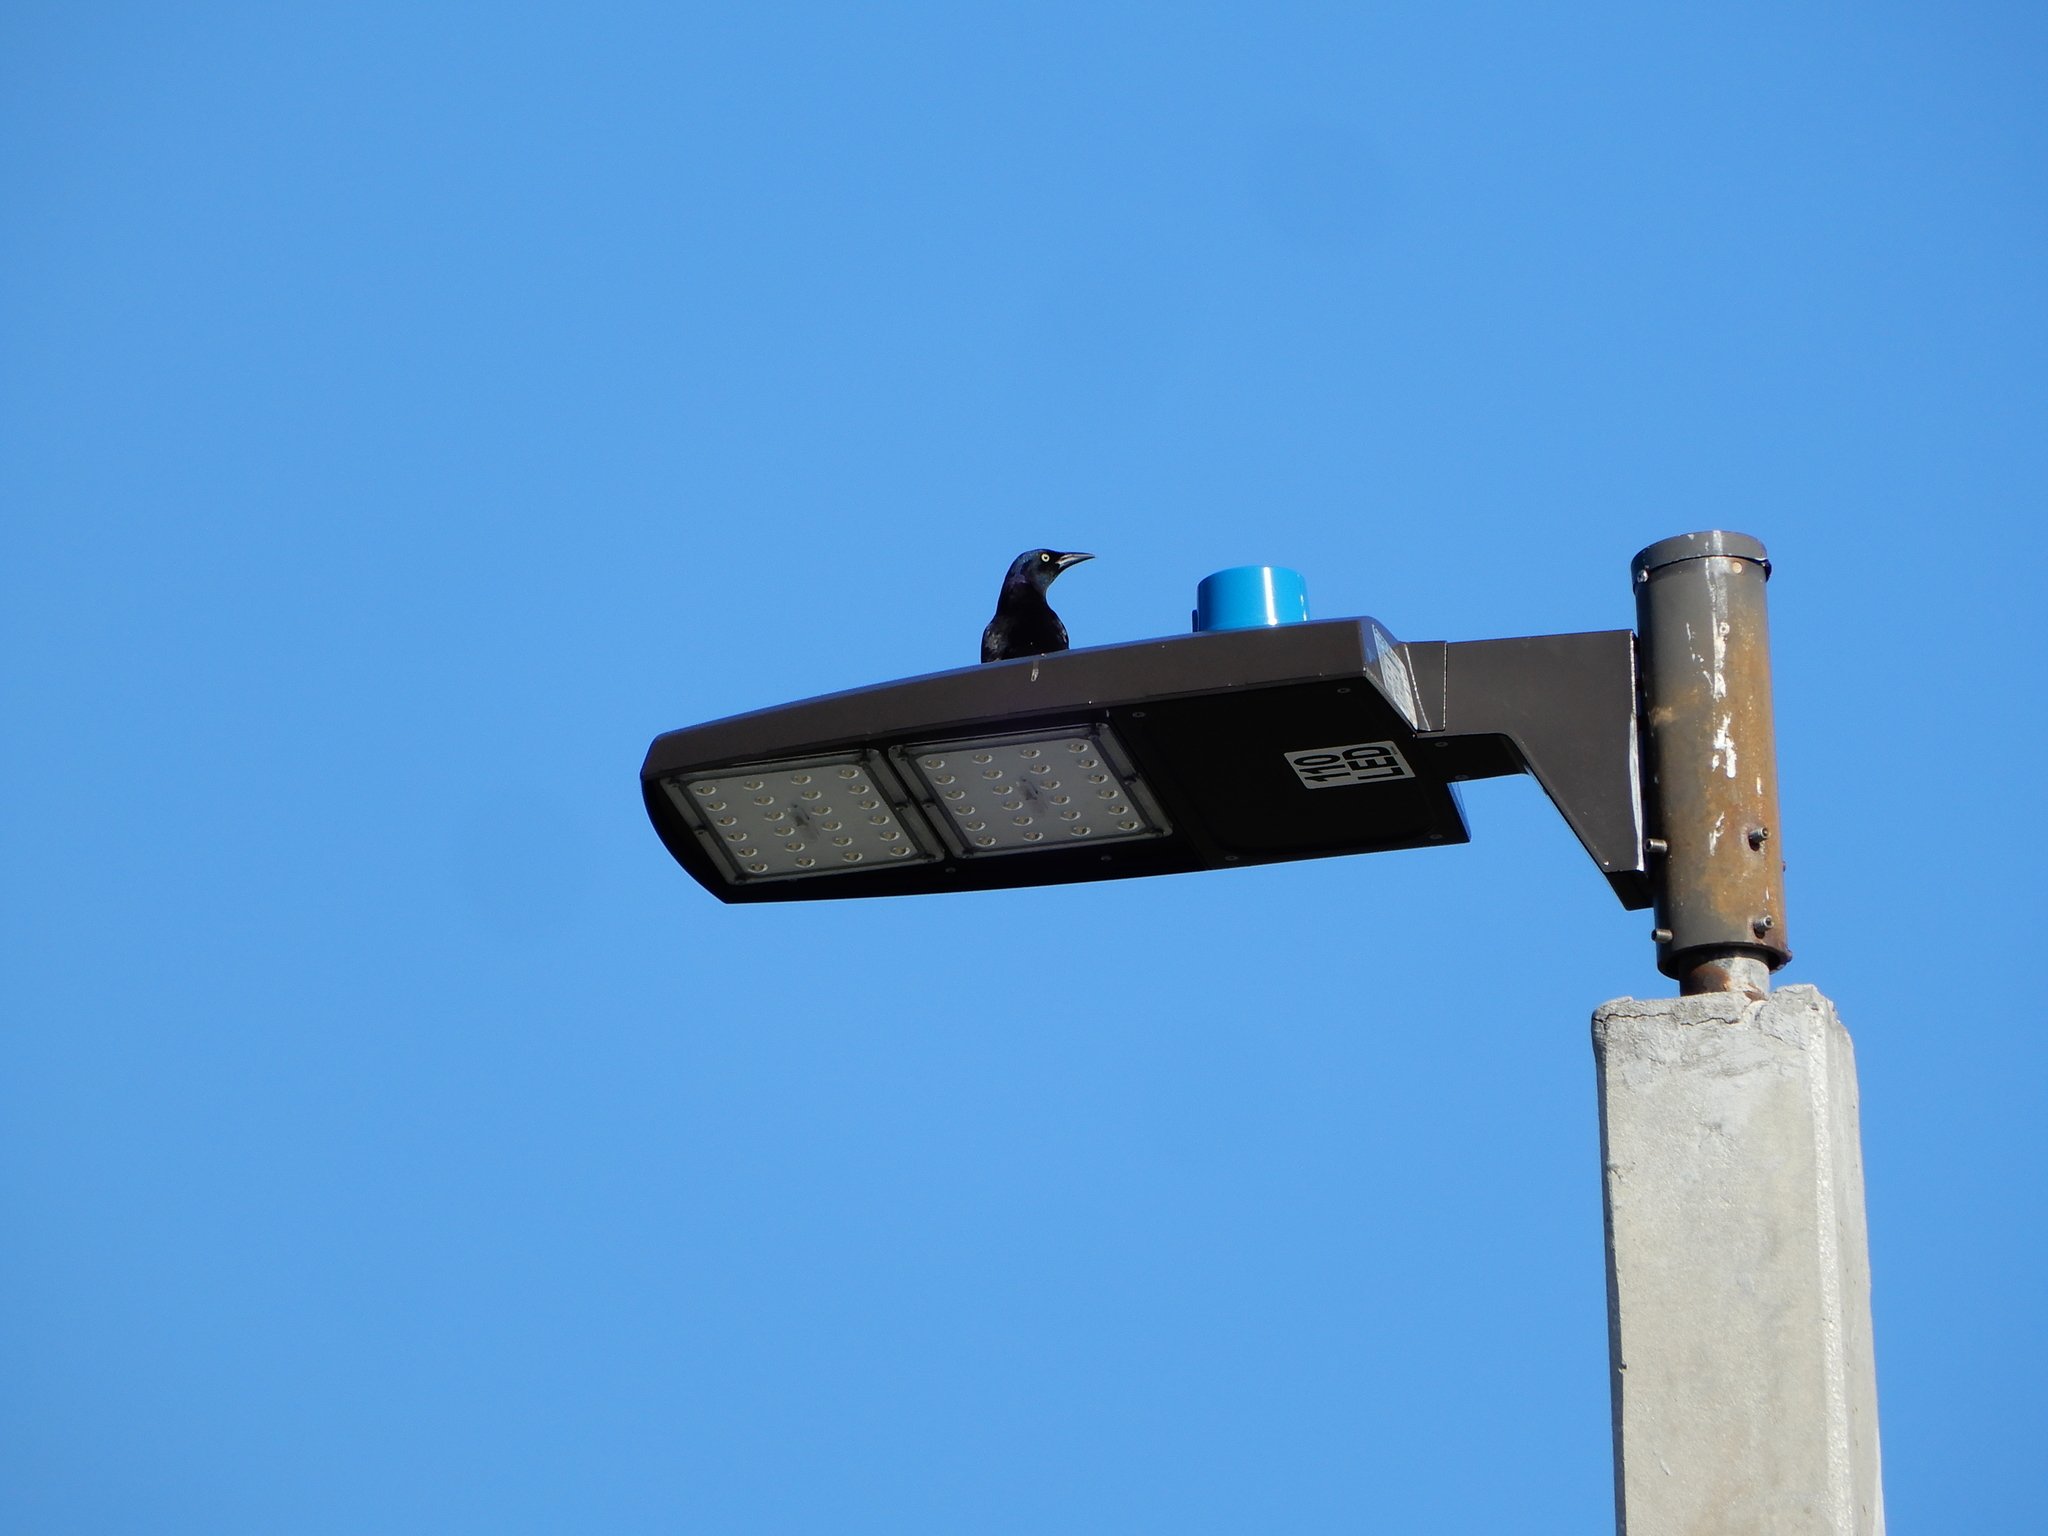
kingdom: Animalia
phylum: Chordata
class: Aves
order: Passeriformes
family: Icteridae
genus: Quiscalus
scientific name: Quiscalus quiscula
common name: Common grackle
